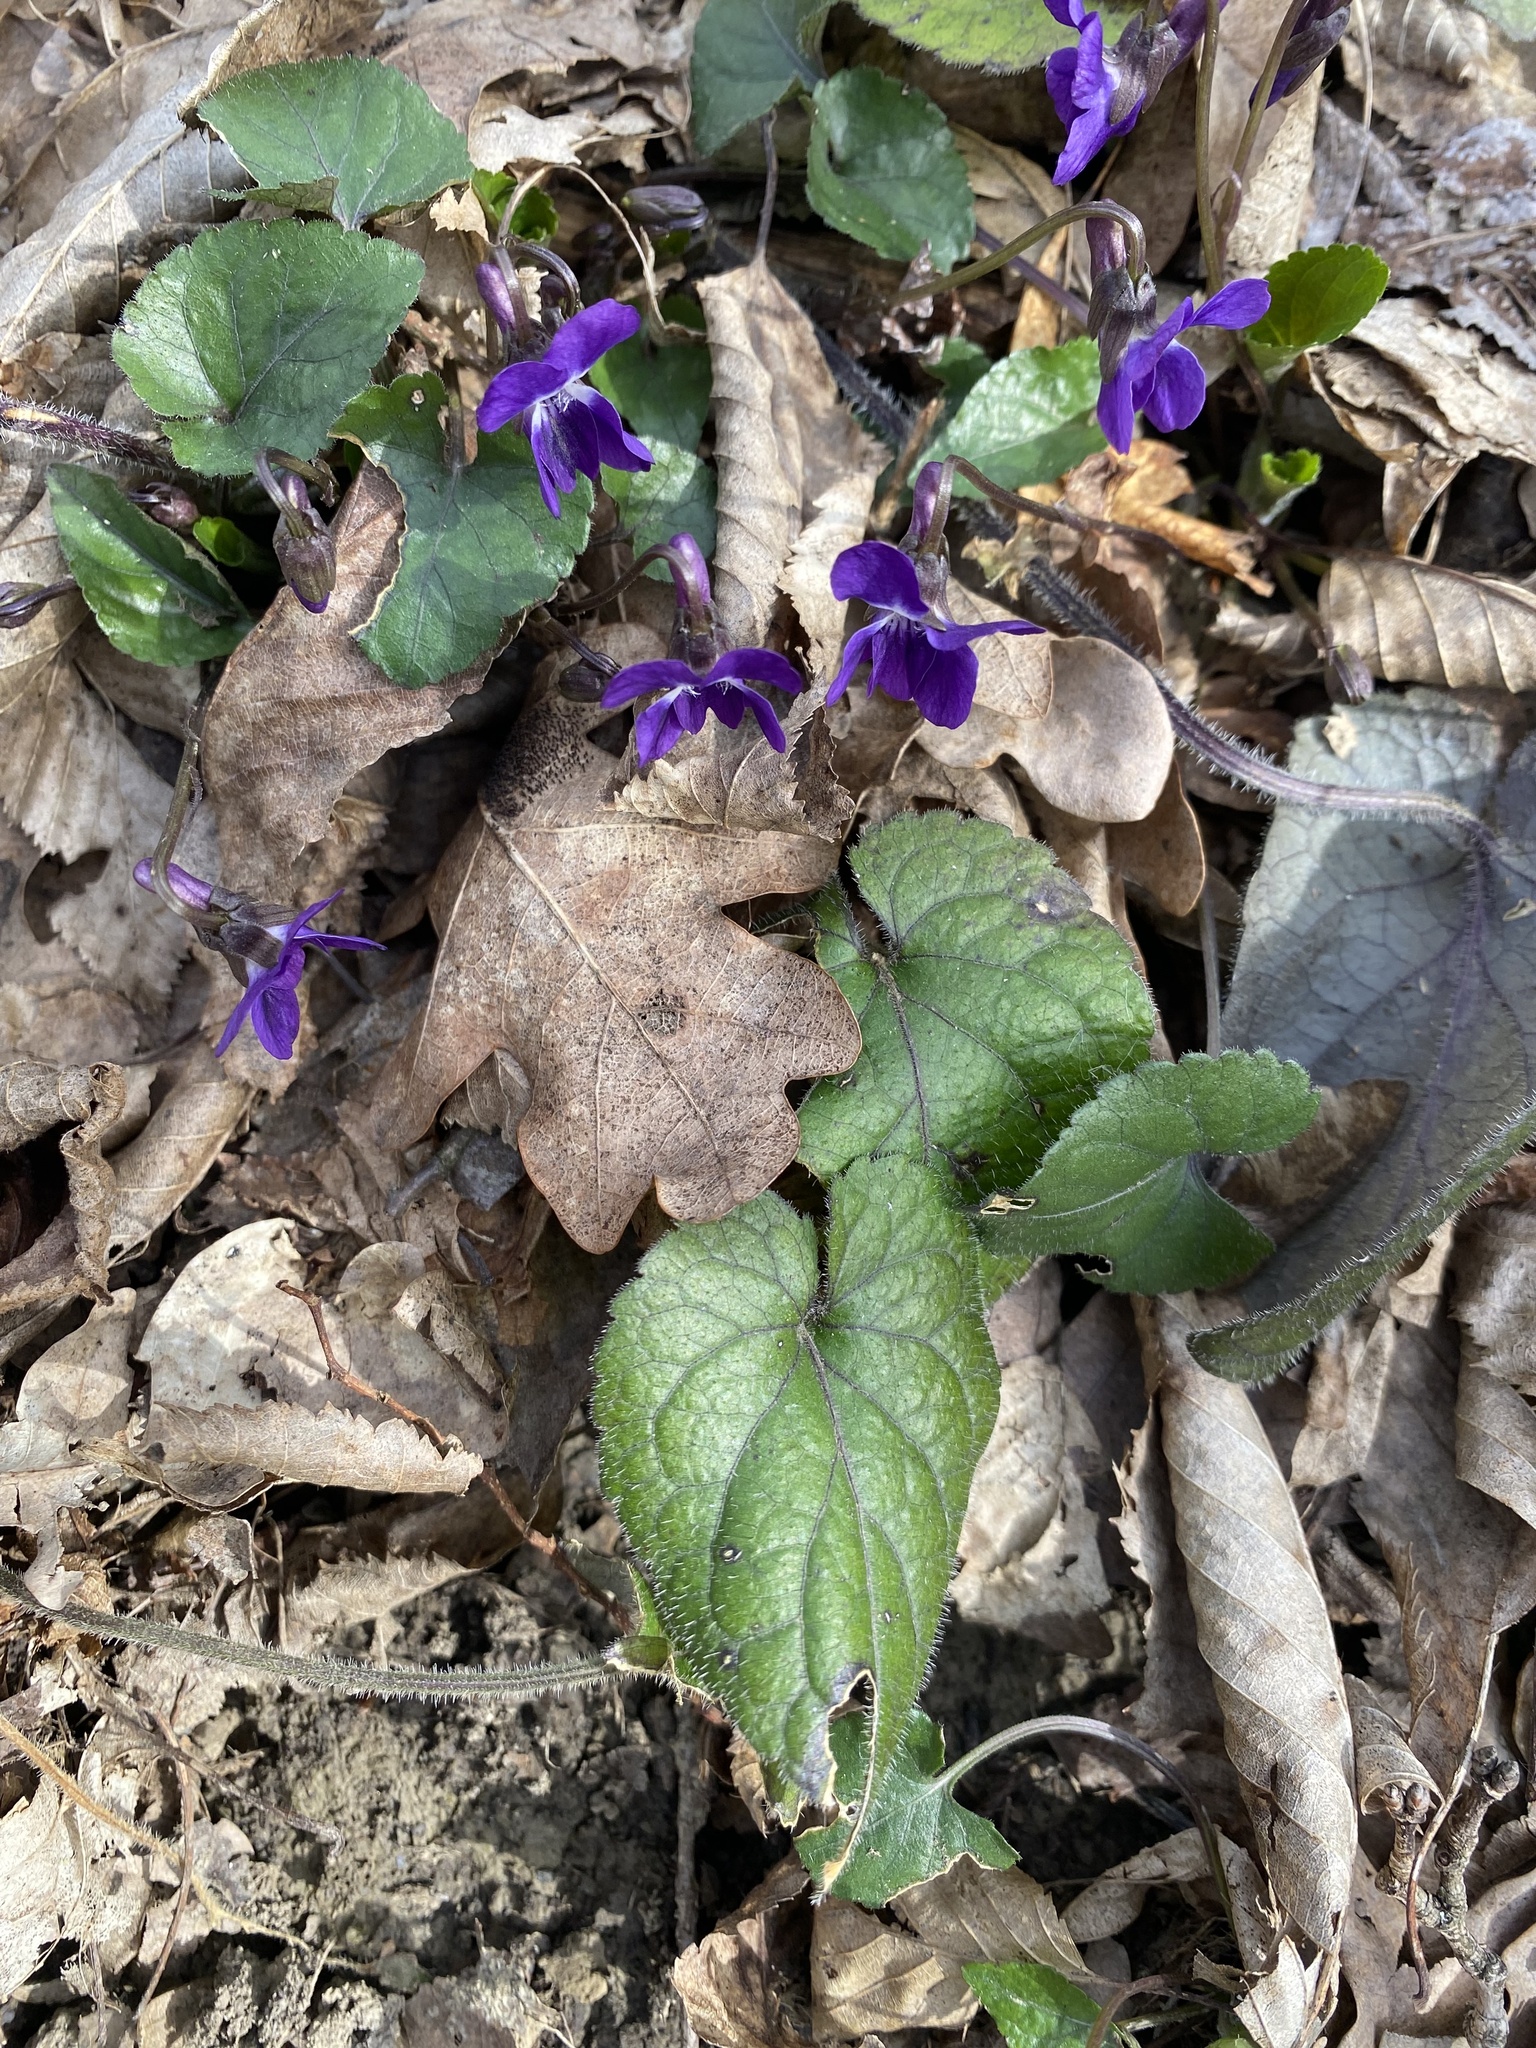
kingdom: Plantae
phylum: Tracheophyta
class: Magnoliopsida
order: Malpighiales
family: Violaceae
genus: Viola
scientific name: Viola alba
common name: White violet
